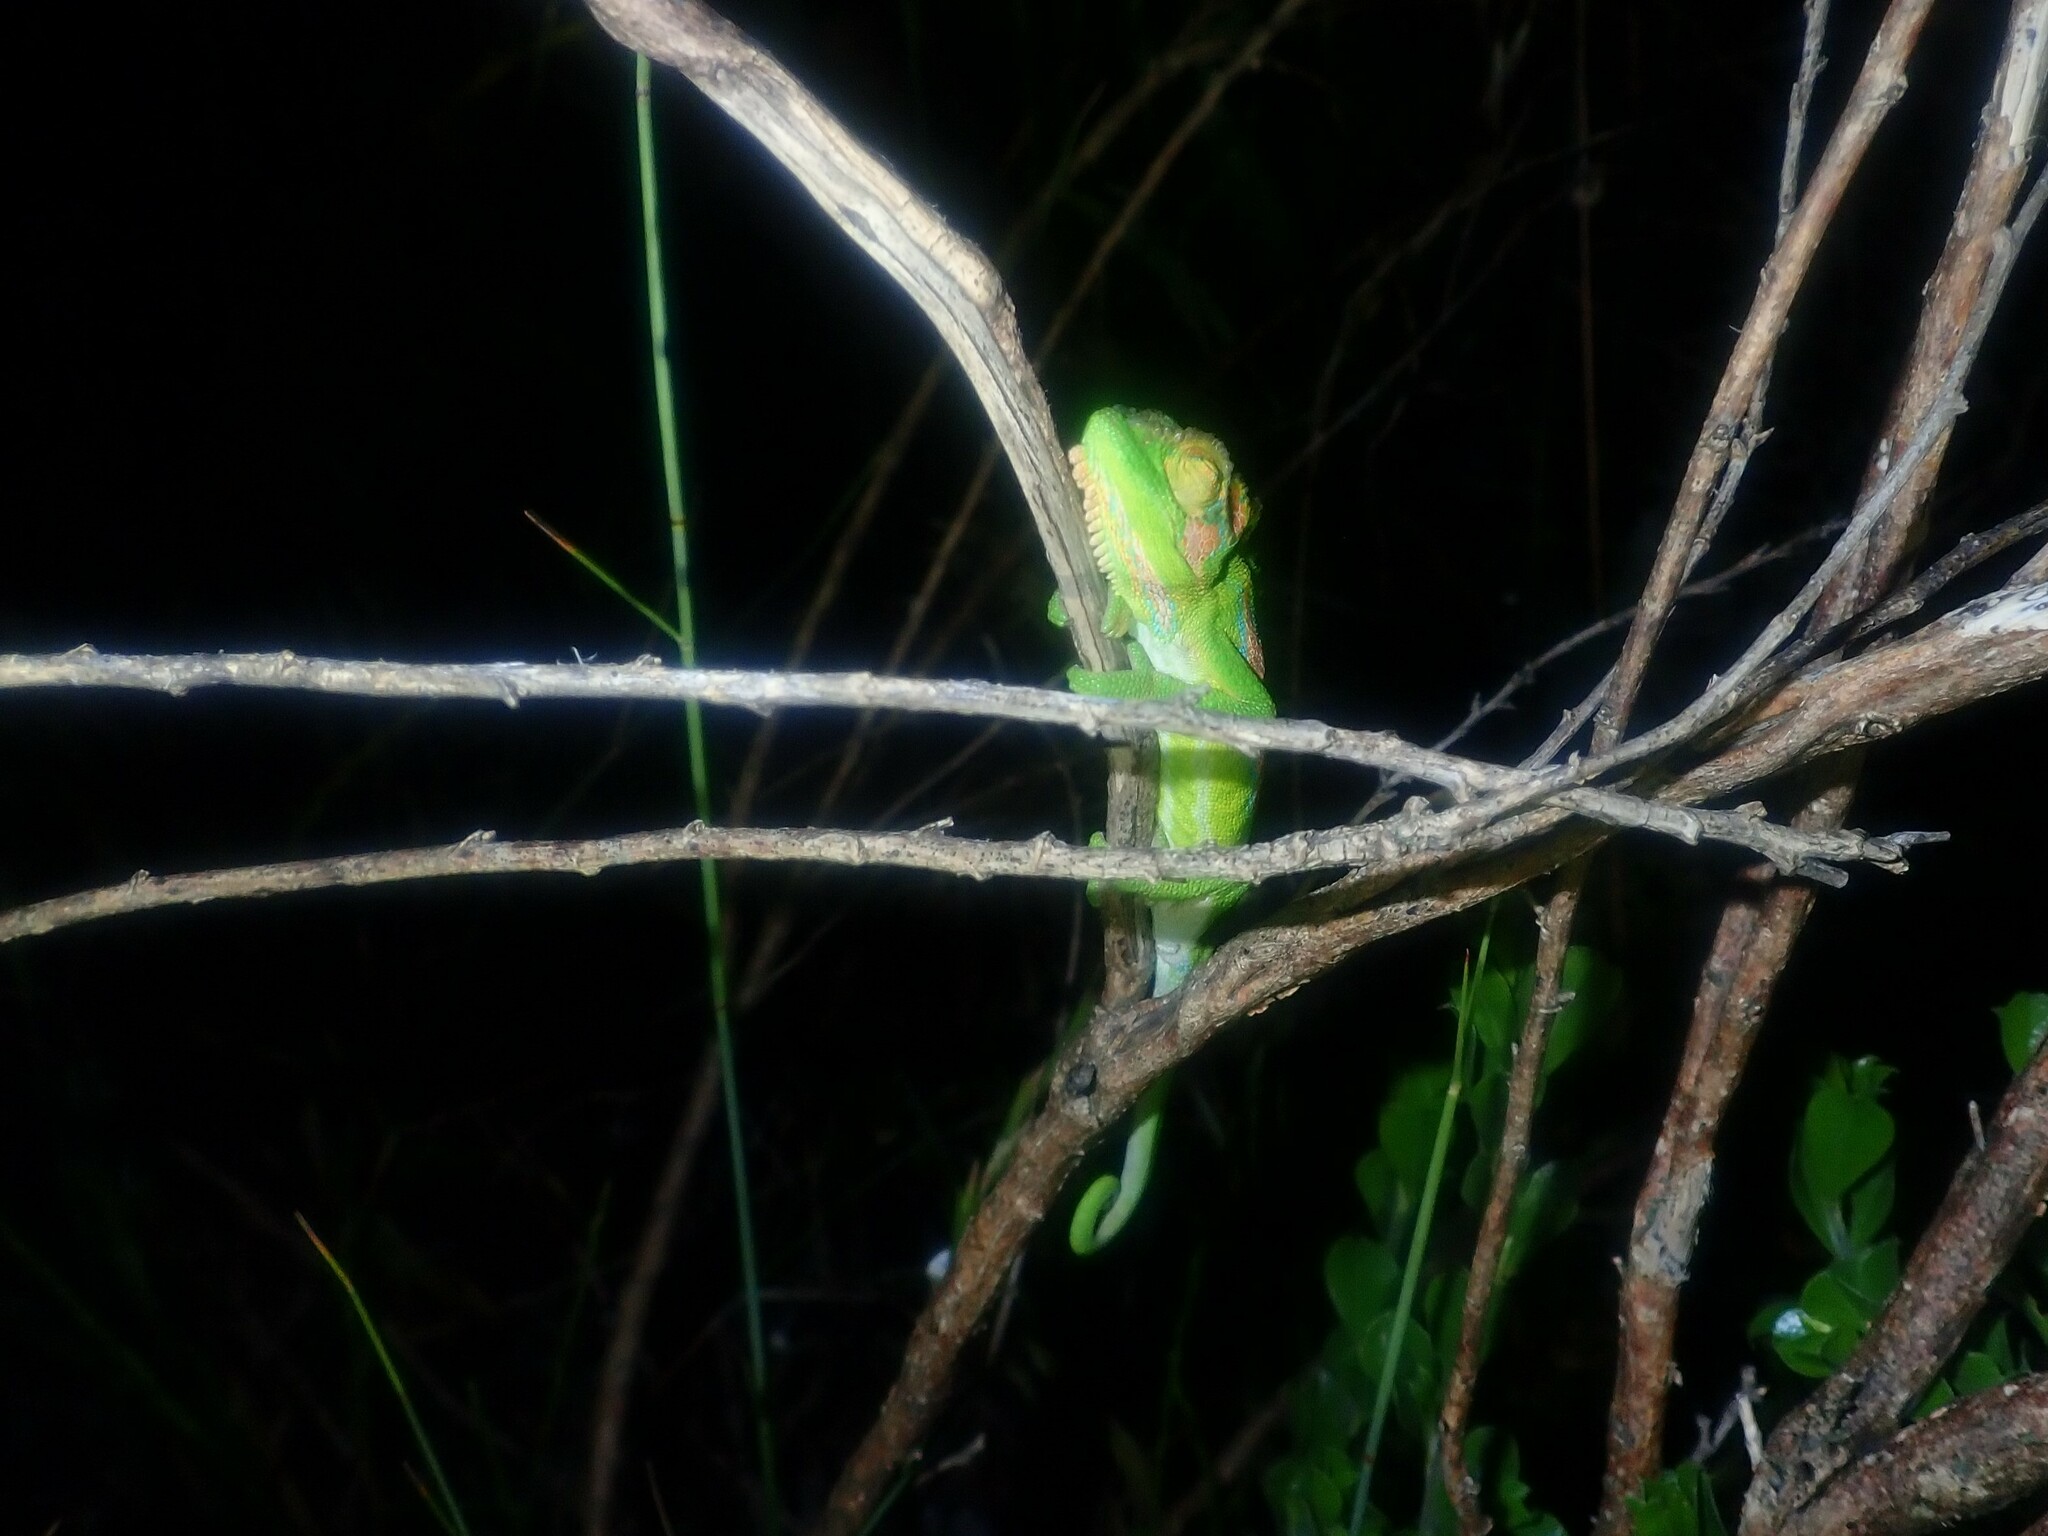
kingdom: Animalia
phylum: Chordata
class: Squamata
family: Chamaeleonidae
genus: Bradypodion
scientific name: Bradypodion pumilum
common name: Cape dwarf chameleon
